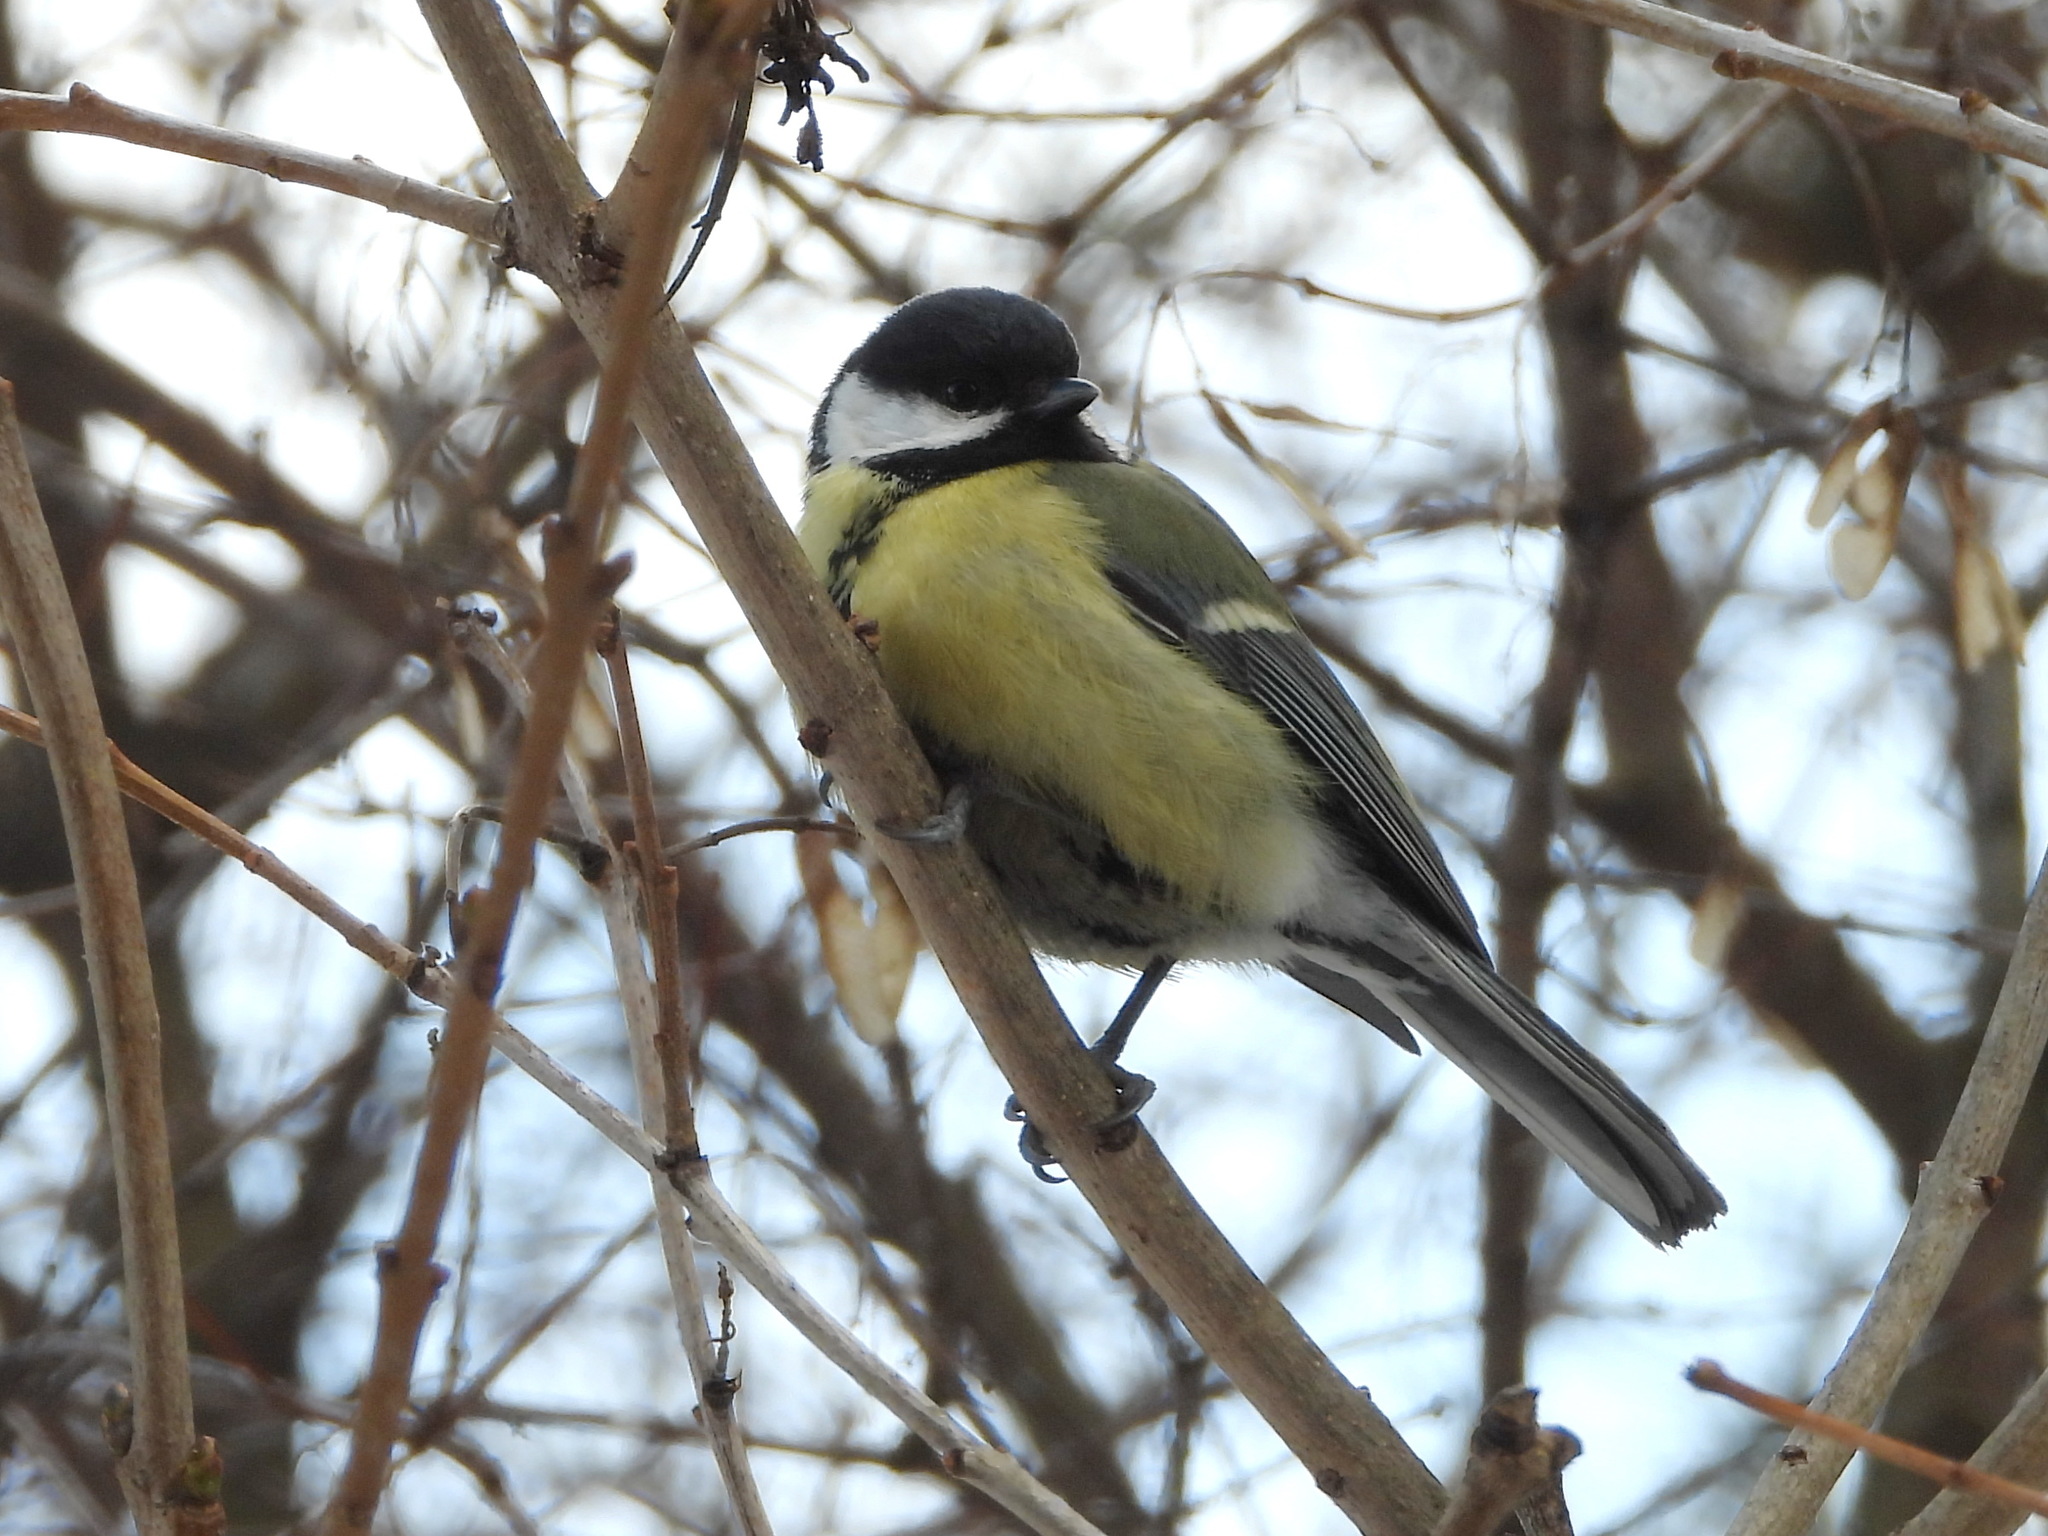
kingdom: Animalia
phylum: Chordata
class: Aves
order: Passeriformes
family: Paridae
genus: Parus
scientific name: Parus major
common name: Great tit
